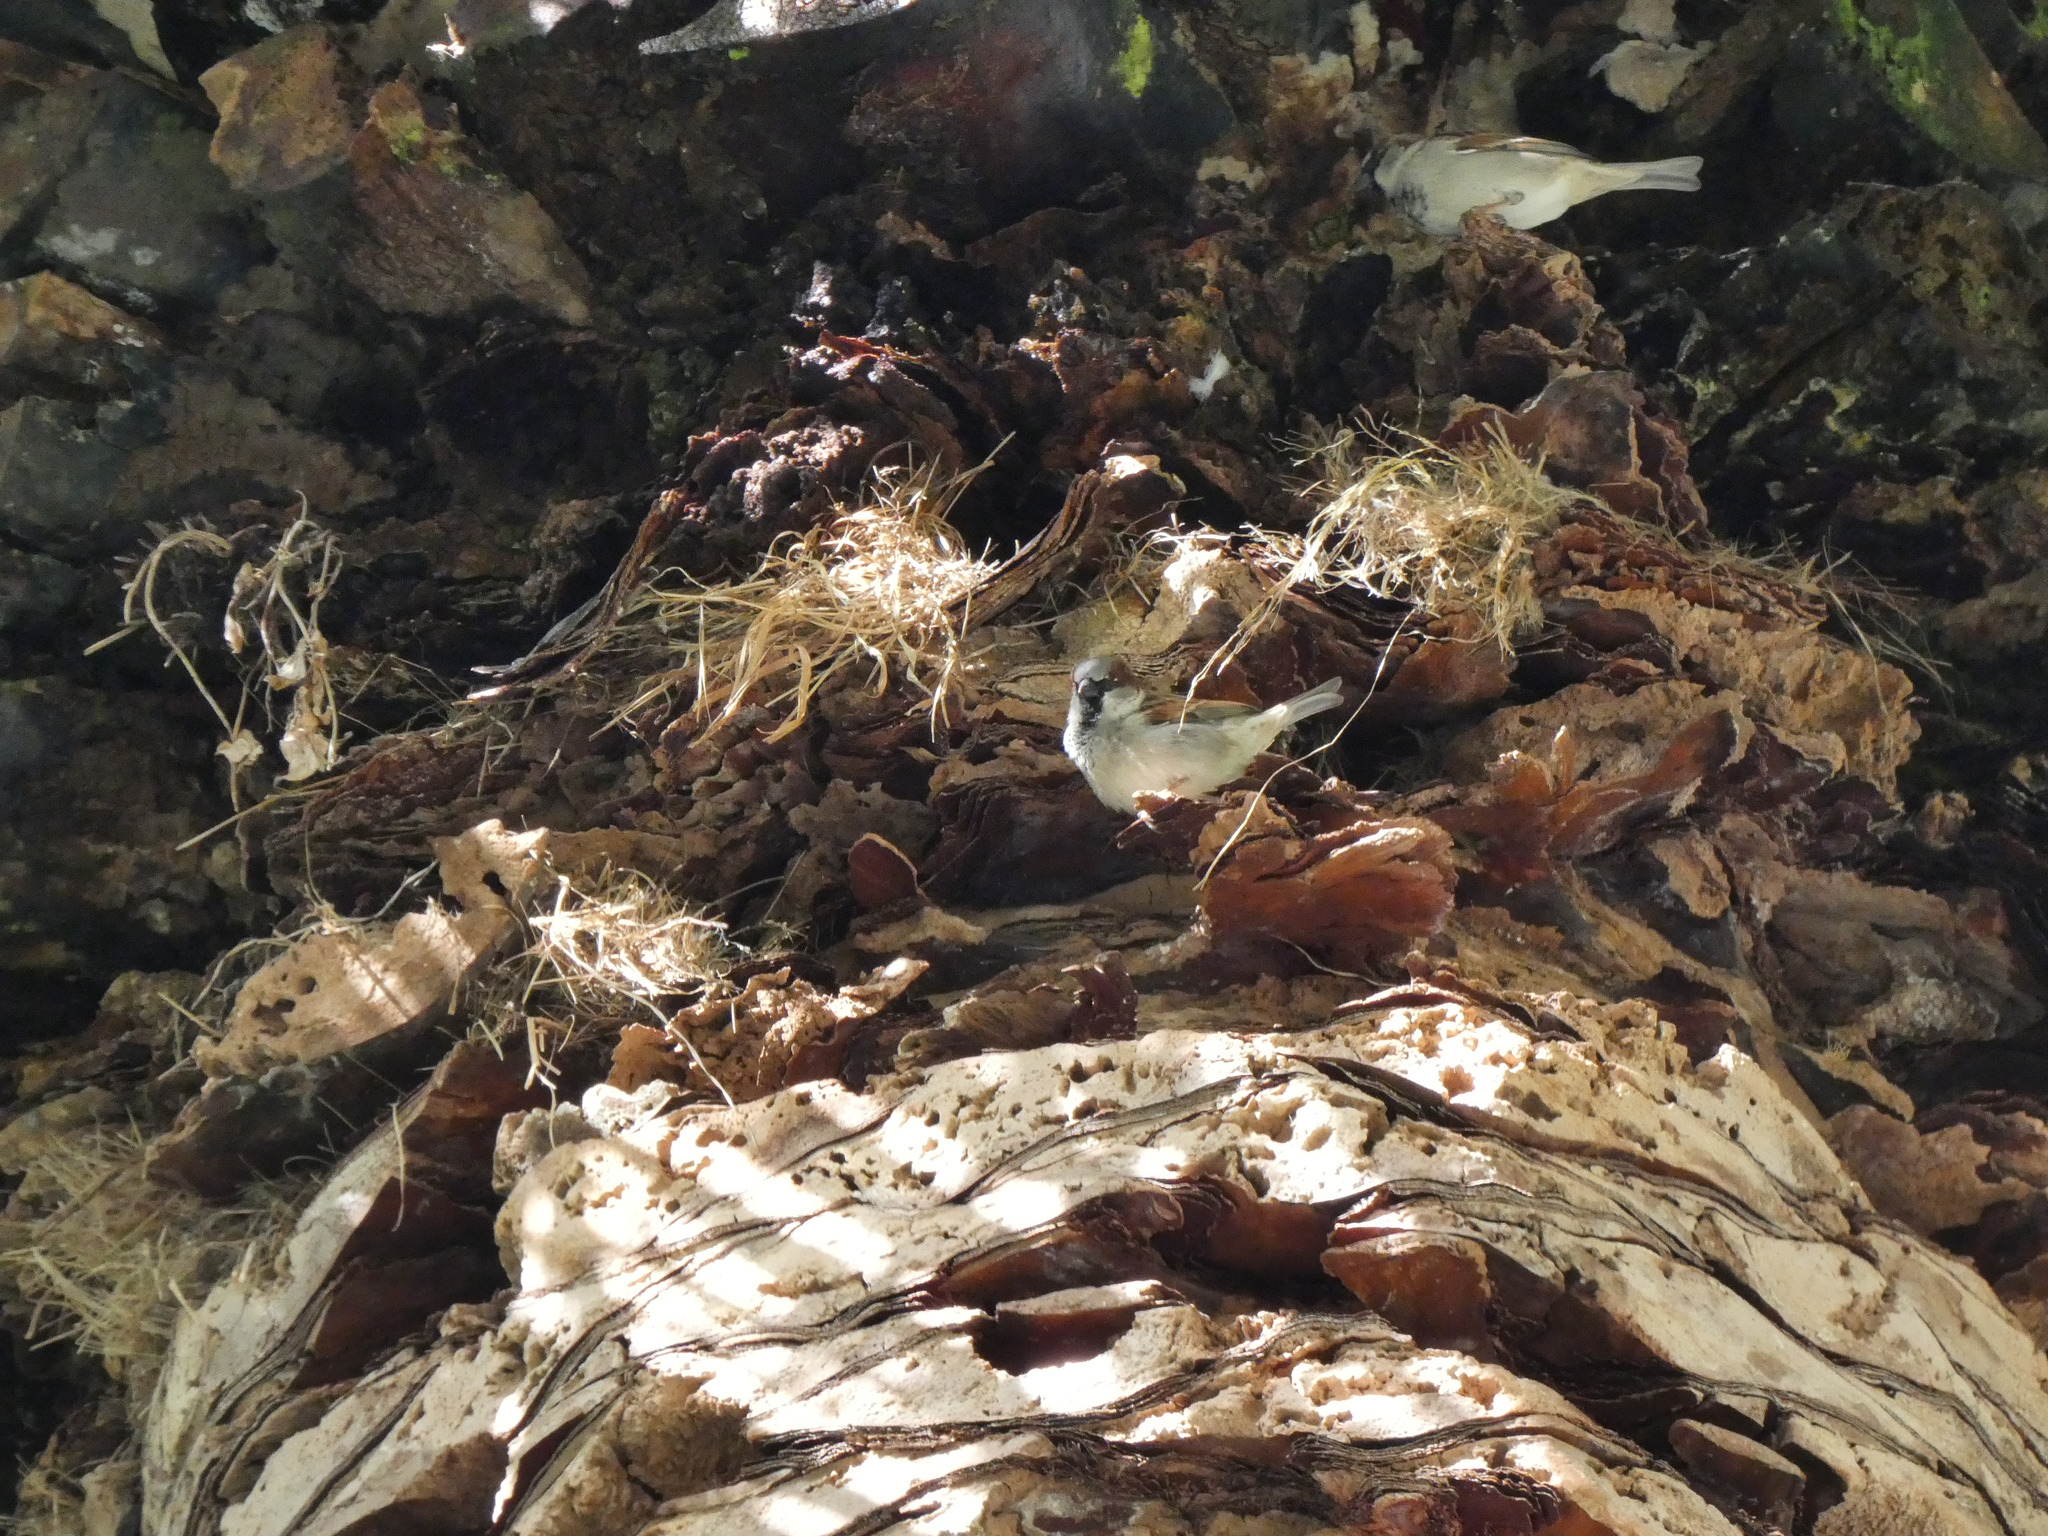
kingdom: Animalia
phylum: Chordata
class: Aves
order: Passeriformes
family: Passeridae
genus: Passer
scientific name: Passer domesticus
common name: House sparrow
